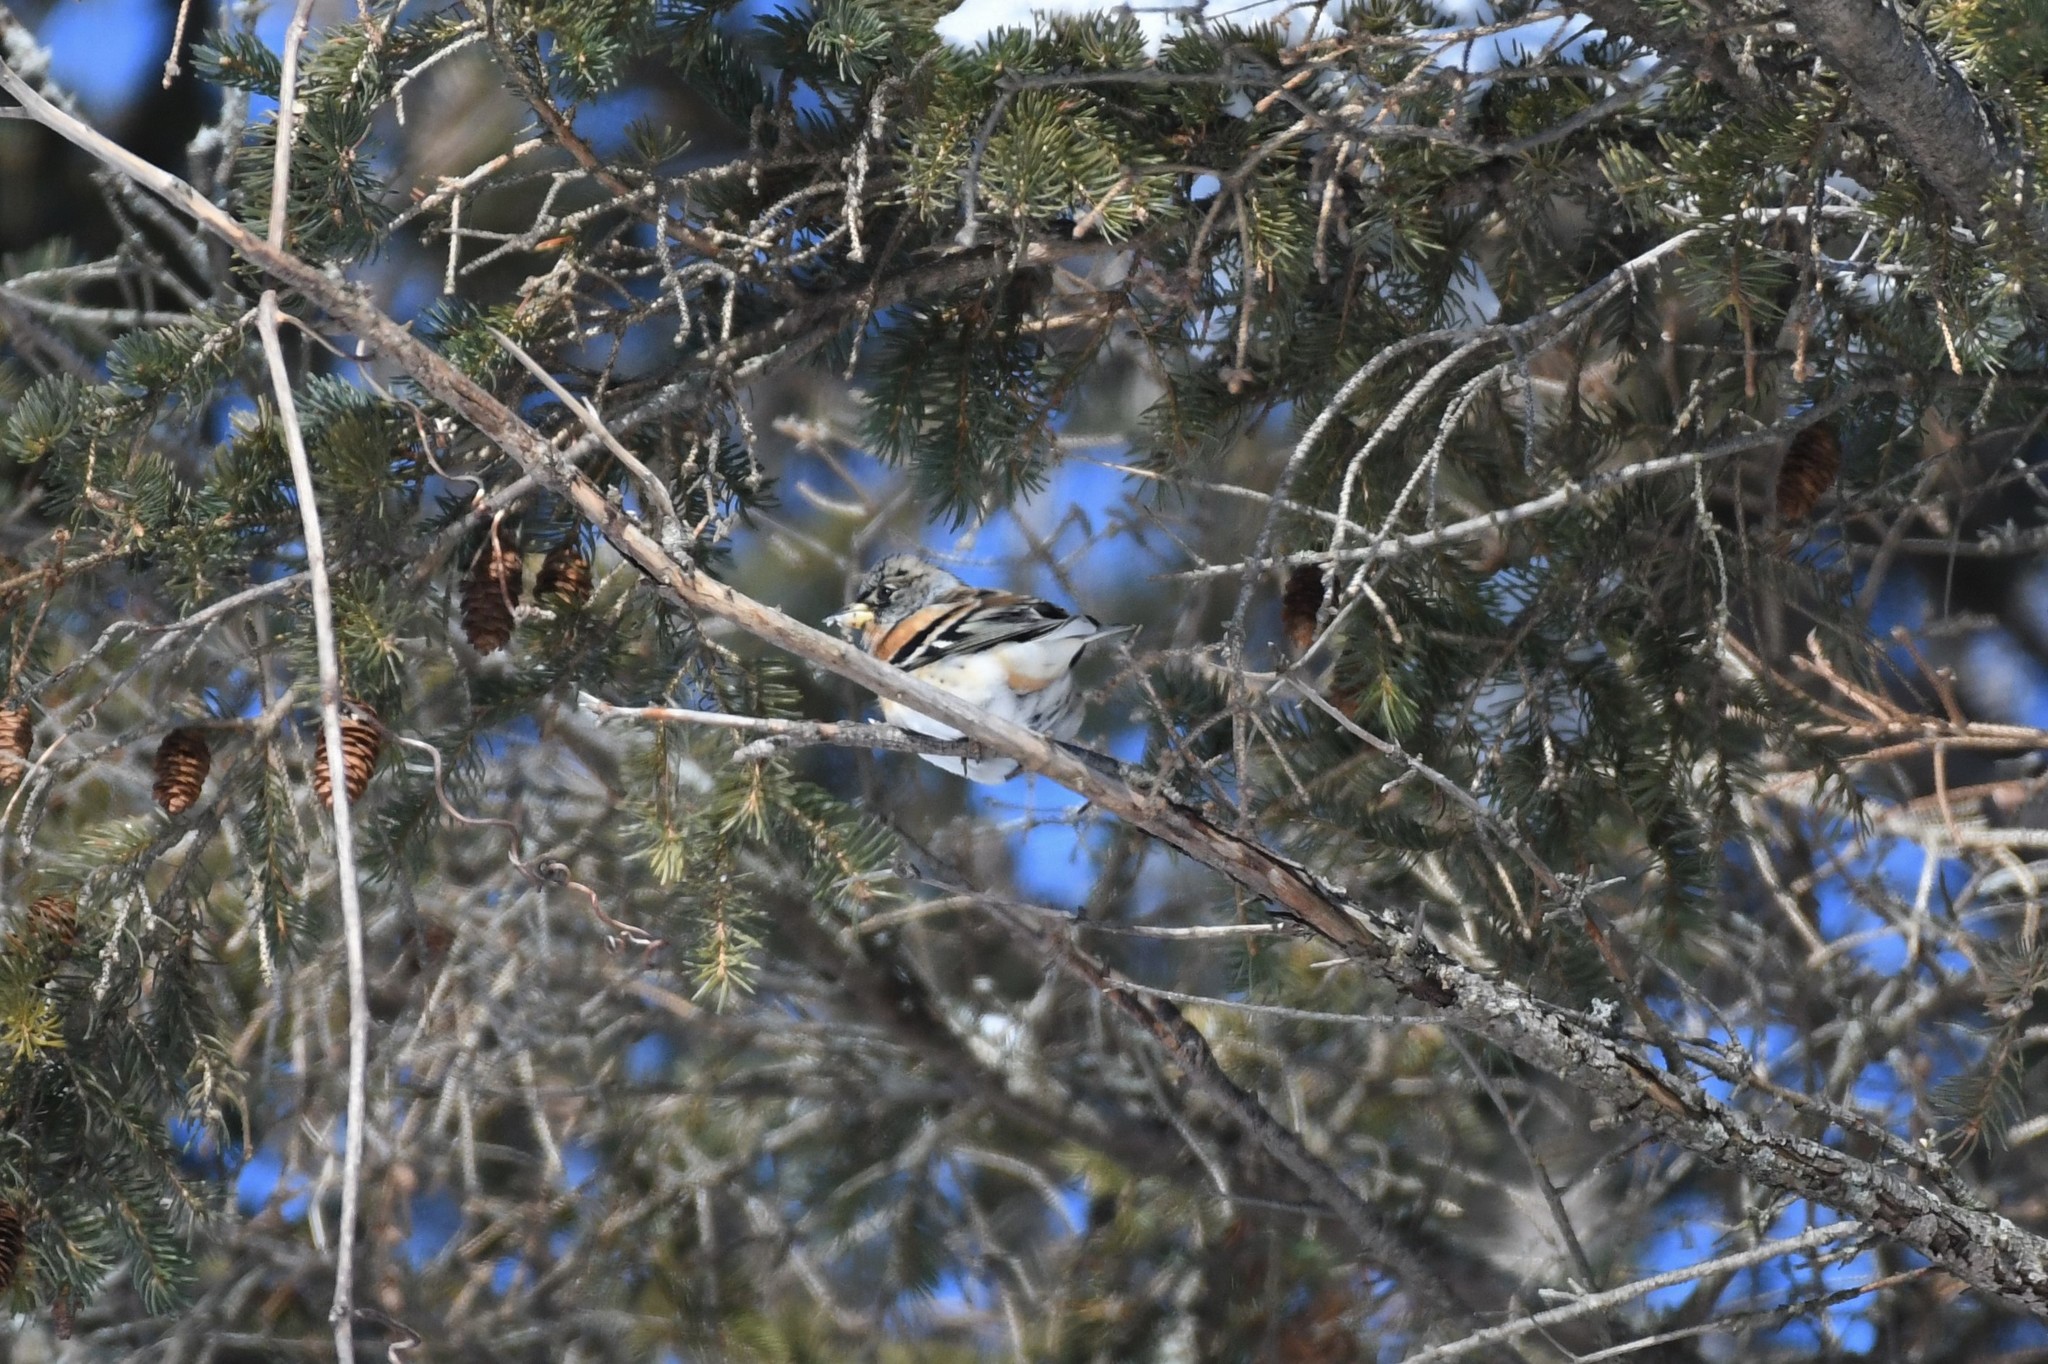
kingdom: Animalia
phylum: Chordata
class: Aves
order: Passeriformes
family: Fringillidae
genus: Fringilla
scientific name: Fringilla montifringilla
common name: Brambling
